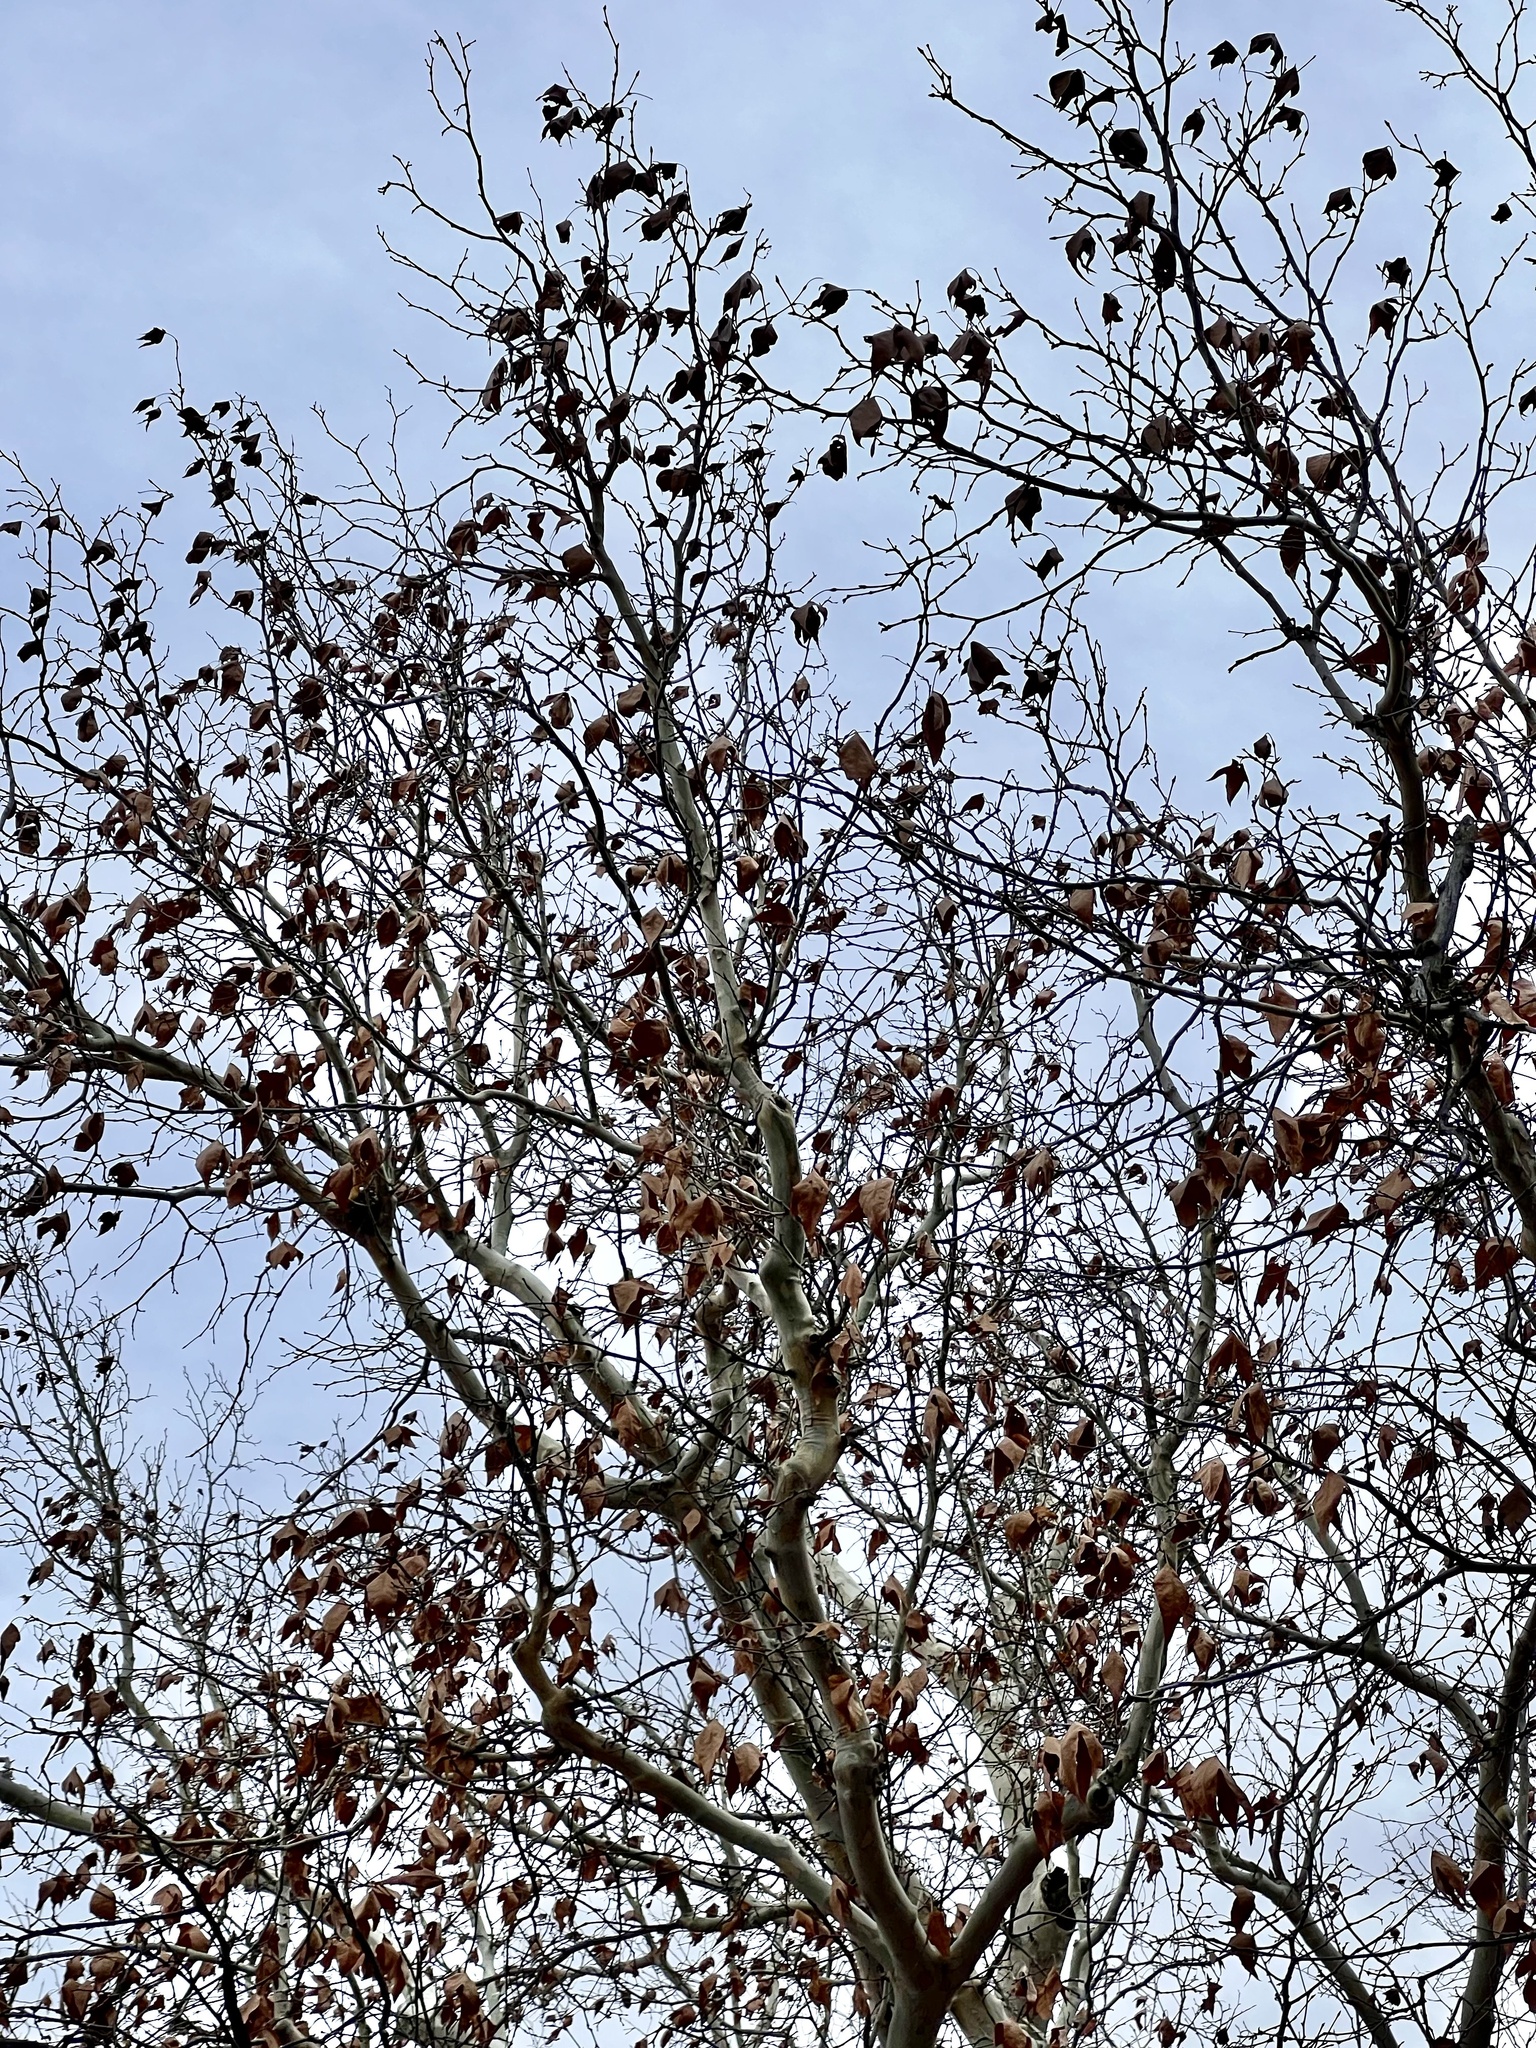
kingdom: Plantae
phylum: Tracheophyta
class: Magnoliopsida
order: Proteales
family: Platanaceae
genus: Platanus
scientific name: Platanus wrightii
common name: Arizona sycamore
